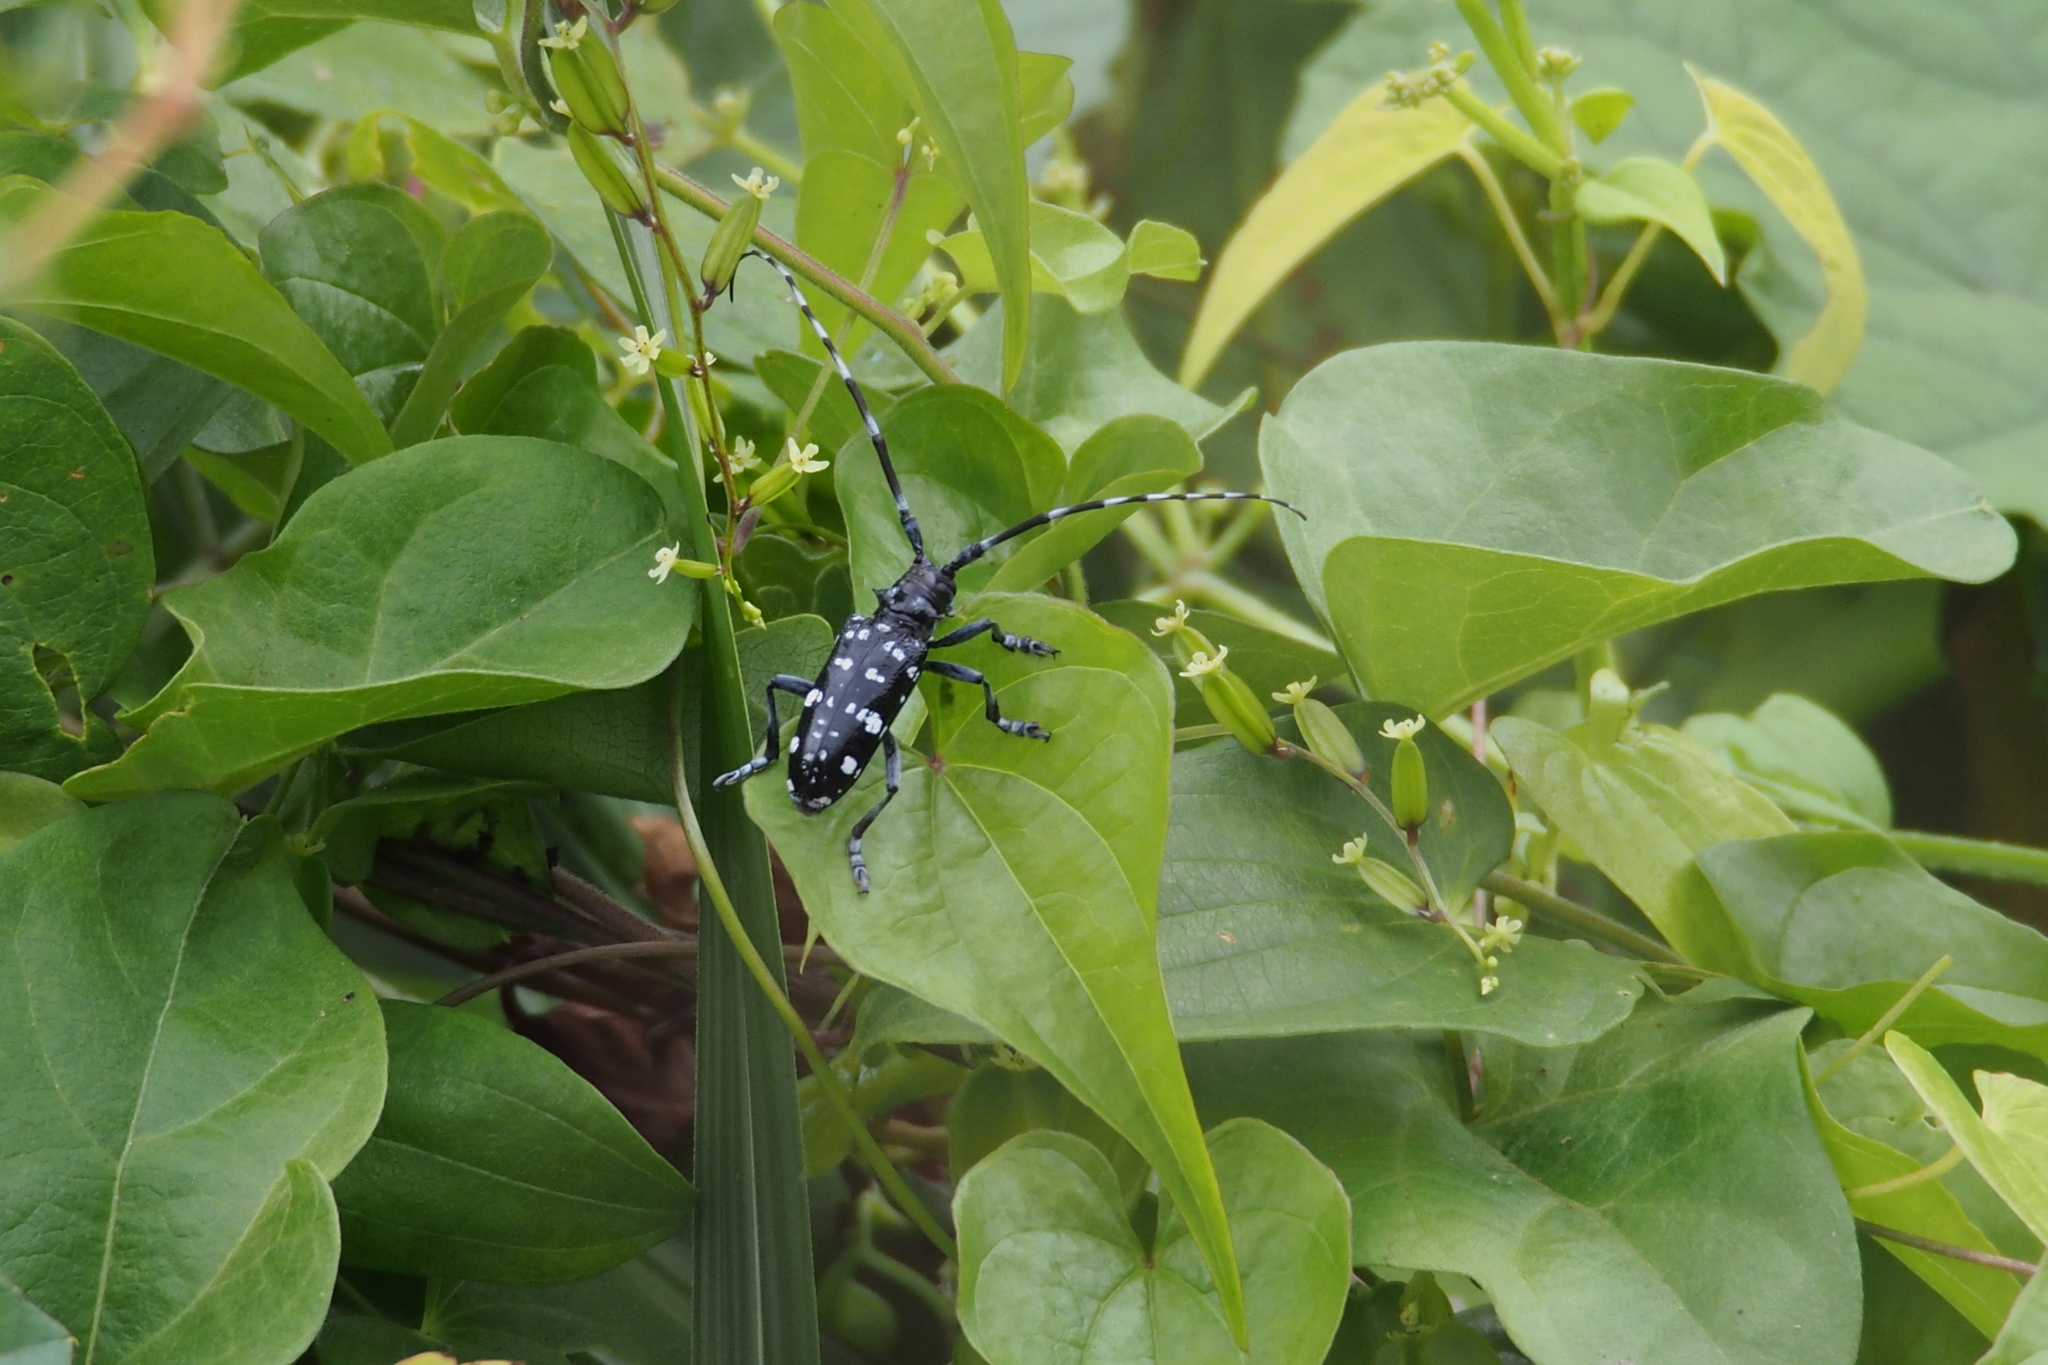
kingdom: Animalia
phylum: Arthropoda
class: Insecta
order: Coleoptera
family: Cerambycidae
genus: Anoplophora
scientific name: Anoplophora chinensis
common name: Citrus longhorned beetle
